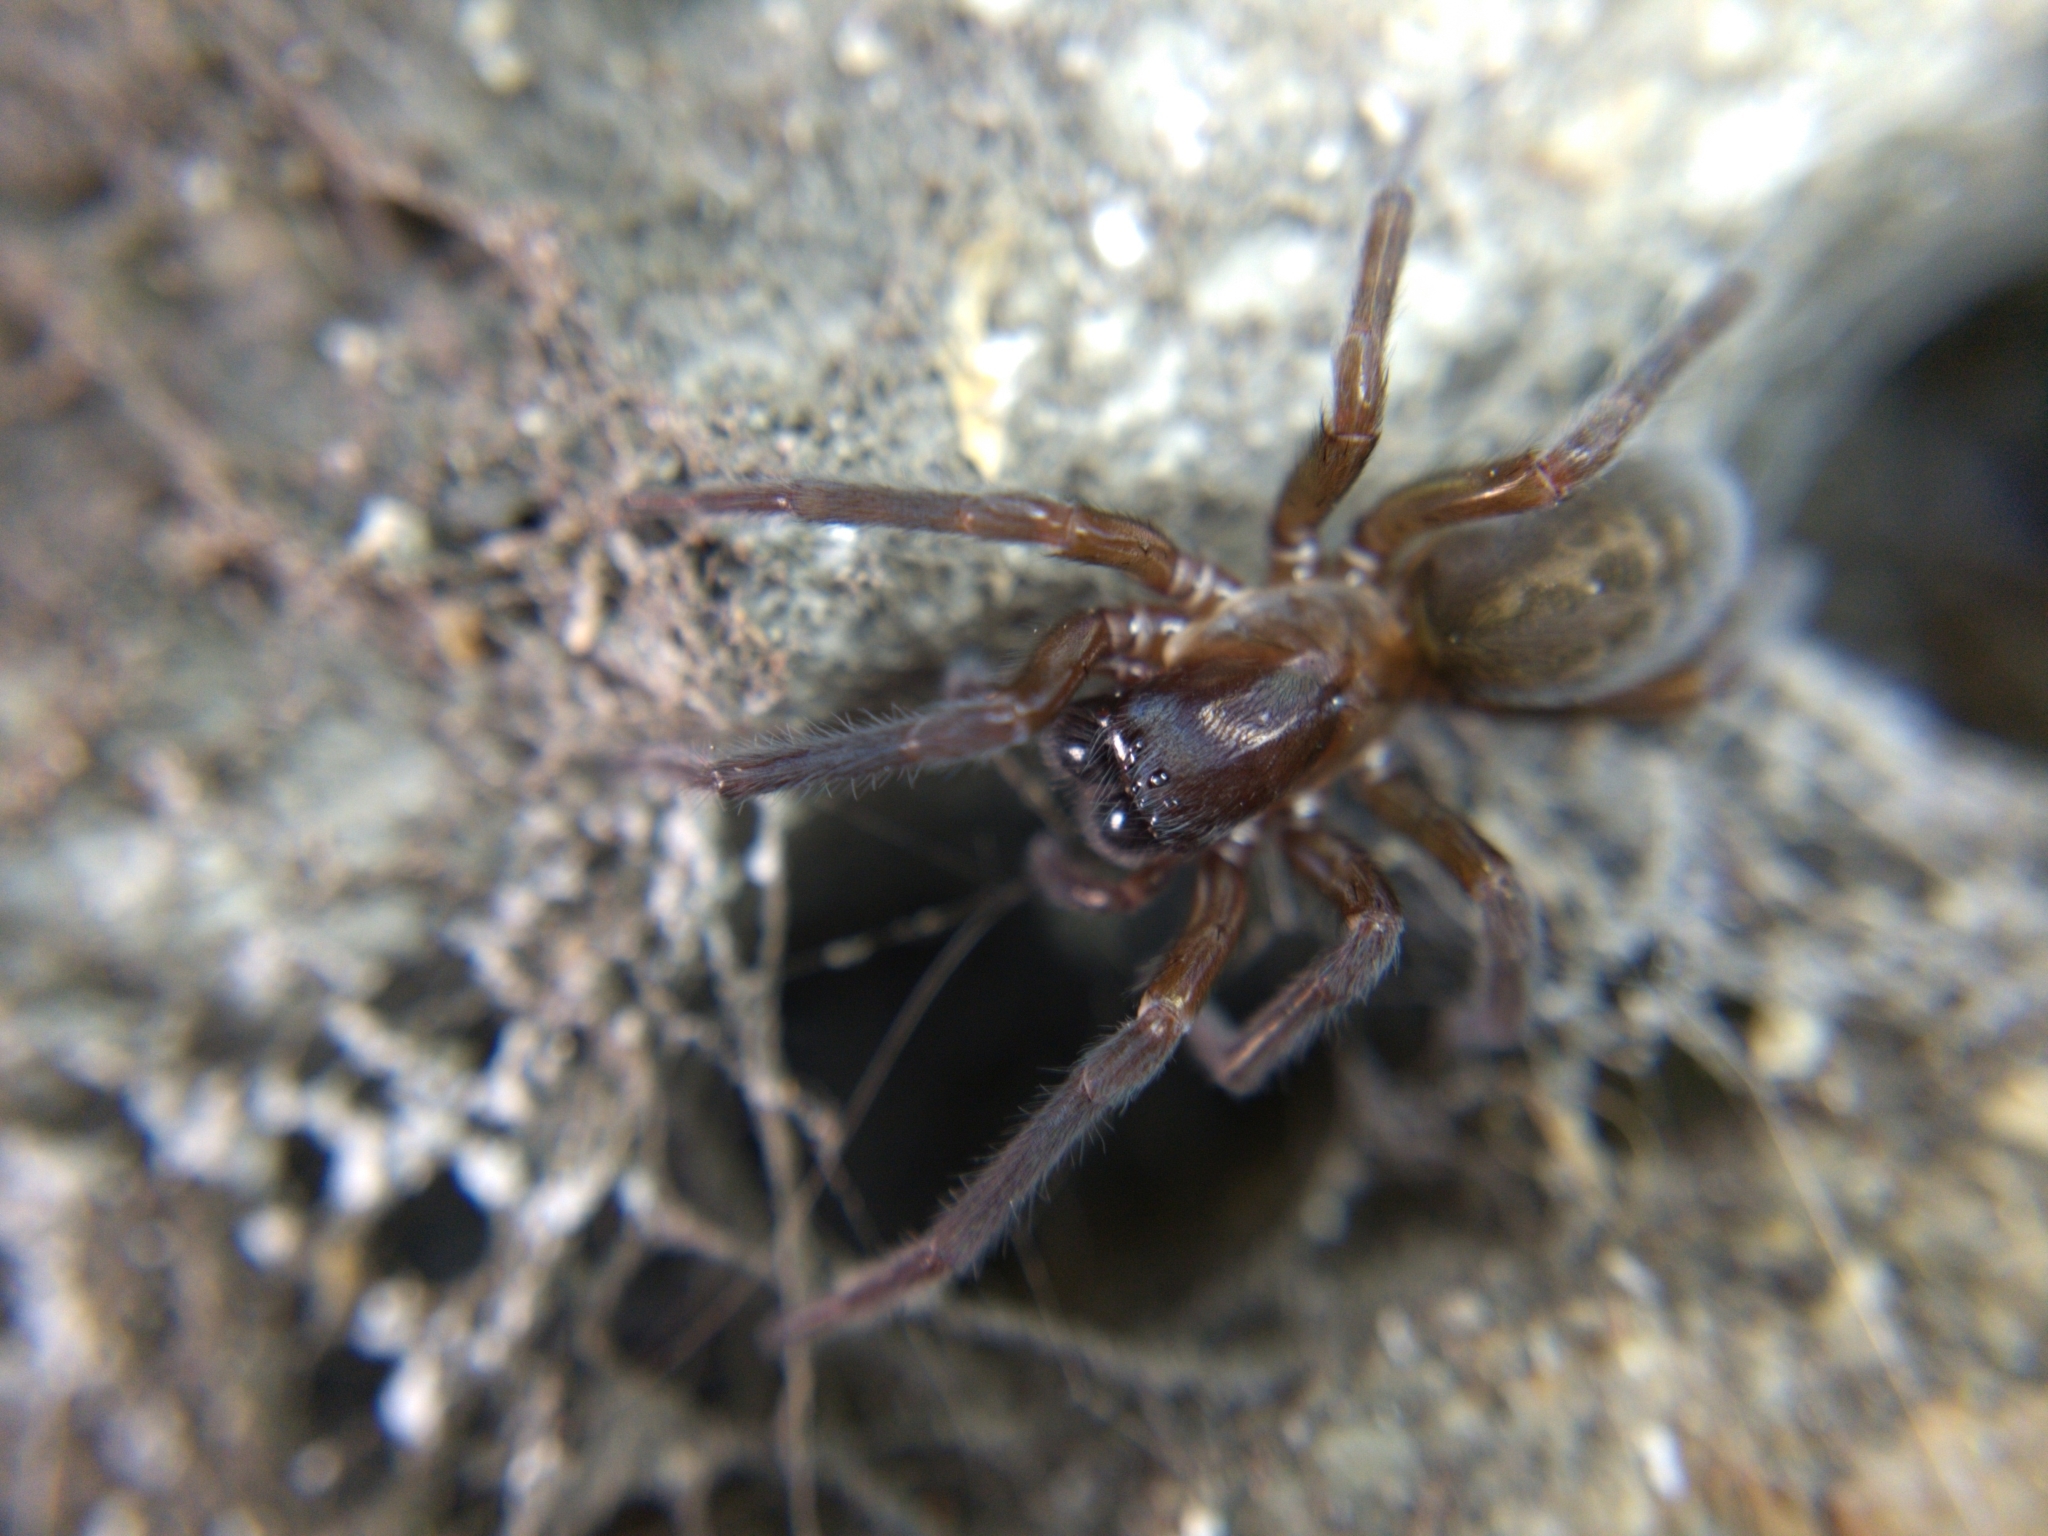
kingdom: Animalia
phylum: Arthropoda
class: Arachnida
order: Araneae
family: Amaurobiidae
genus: Amaurobius
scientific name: Amaurobius ferox
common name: Black laceweaver
